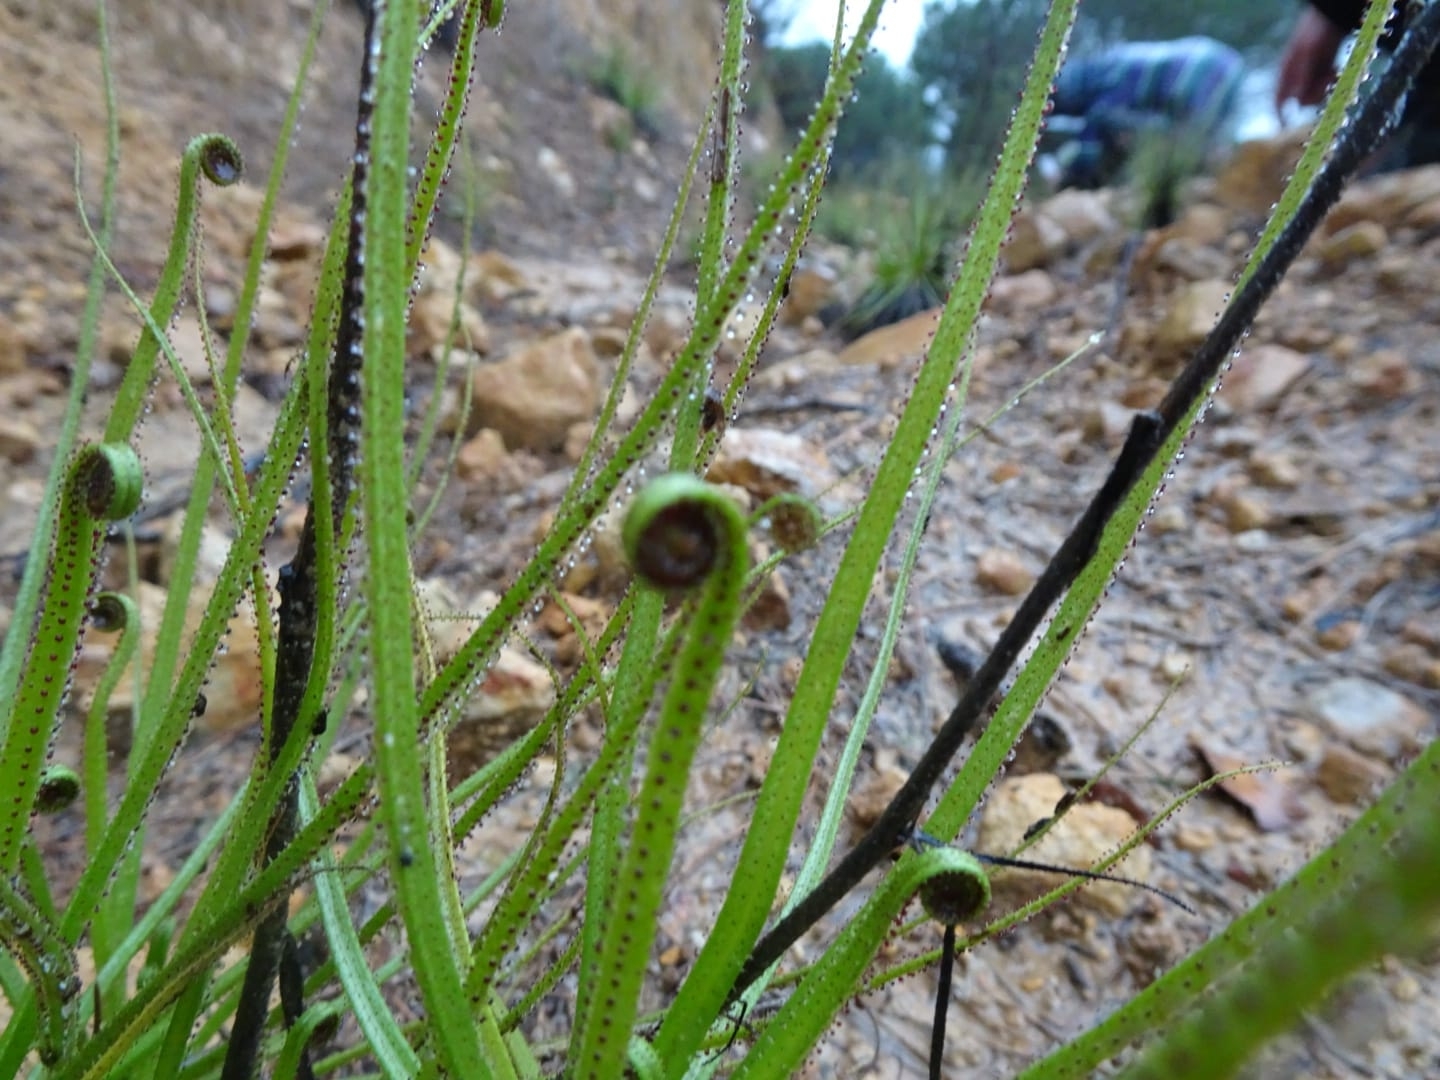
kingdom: Plantae
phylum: Tracheophyta
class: Magnoliopsida
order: Caryophyllales
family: Drosophyllaceae
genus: Drosophyllum
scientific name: Drosophyllum lusitanicum
